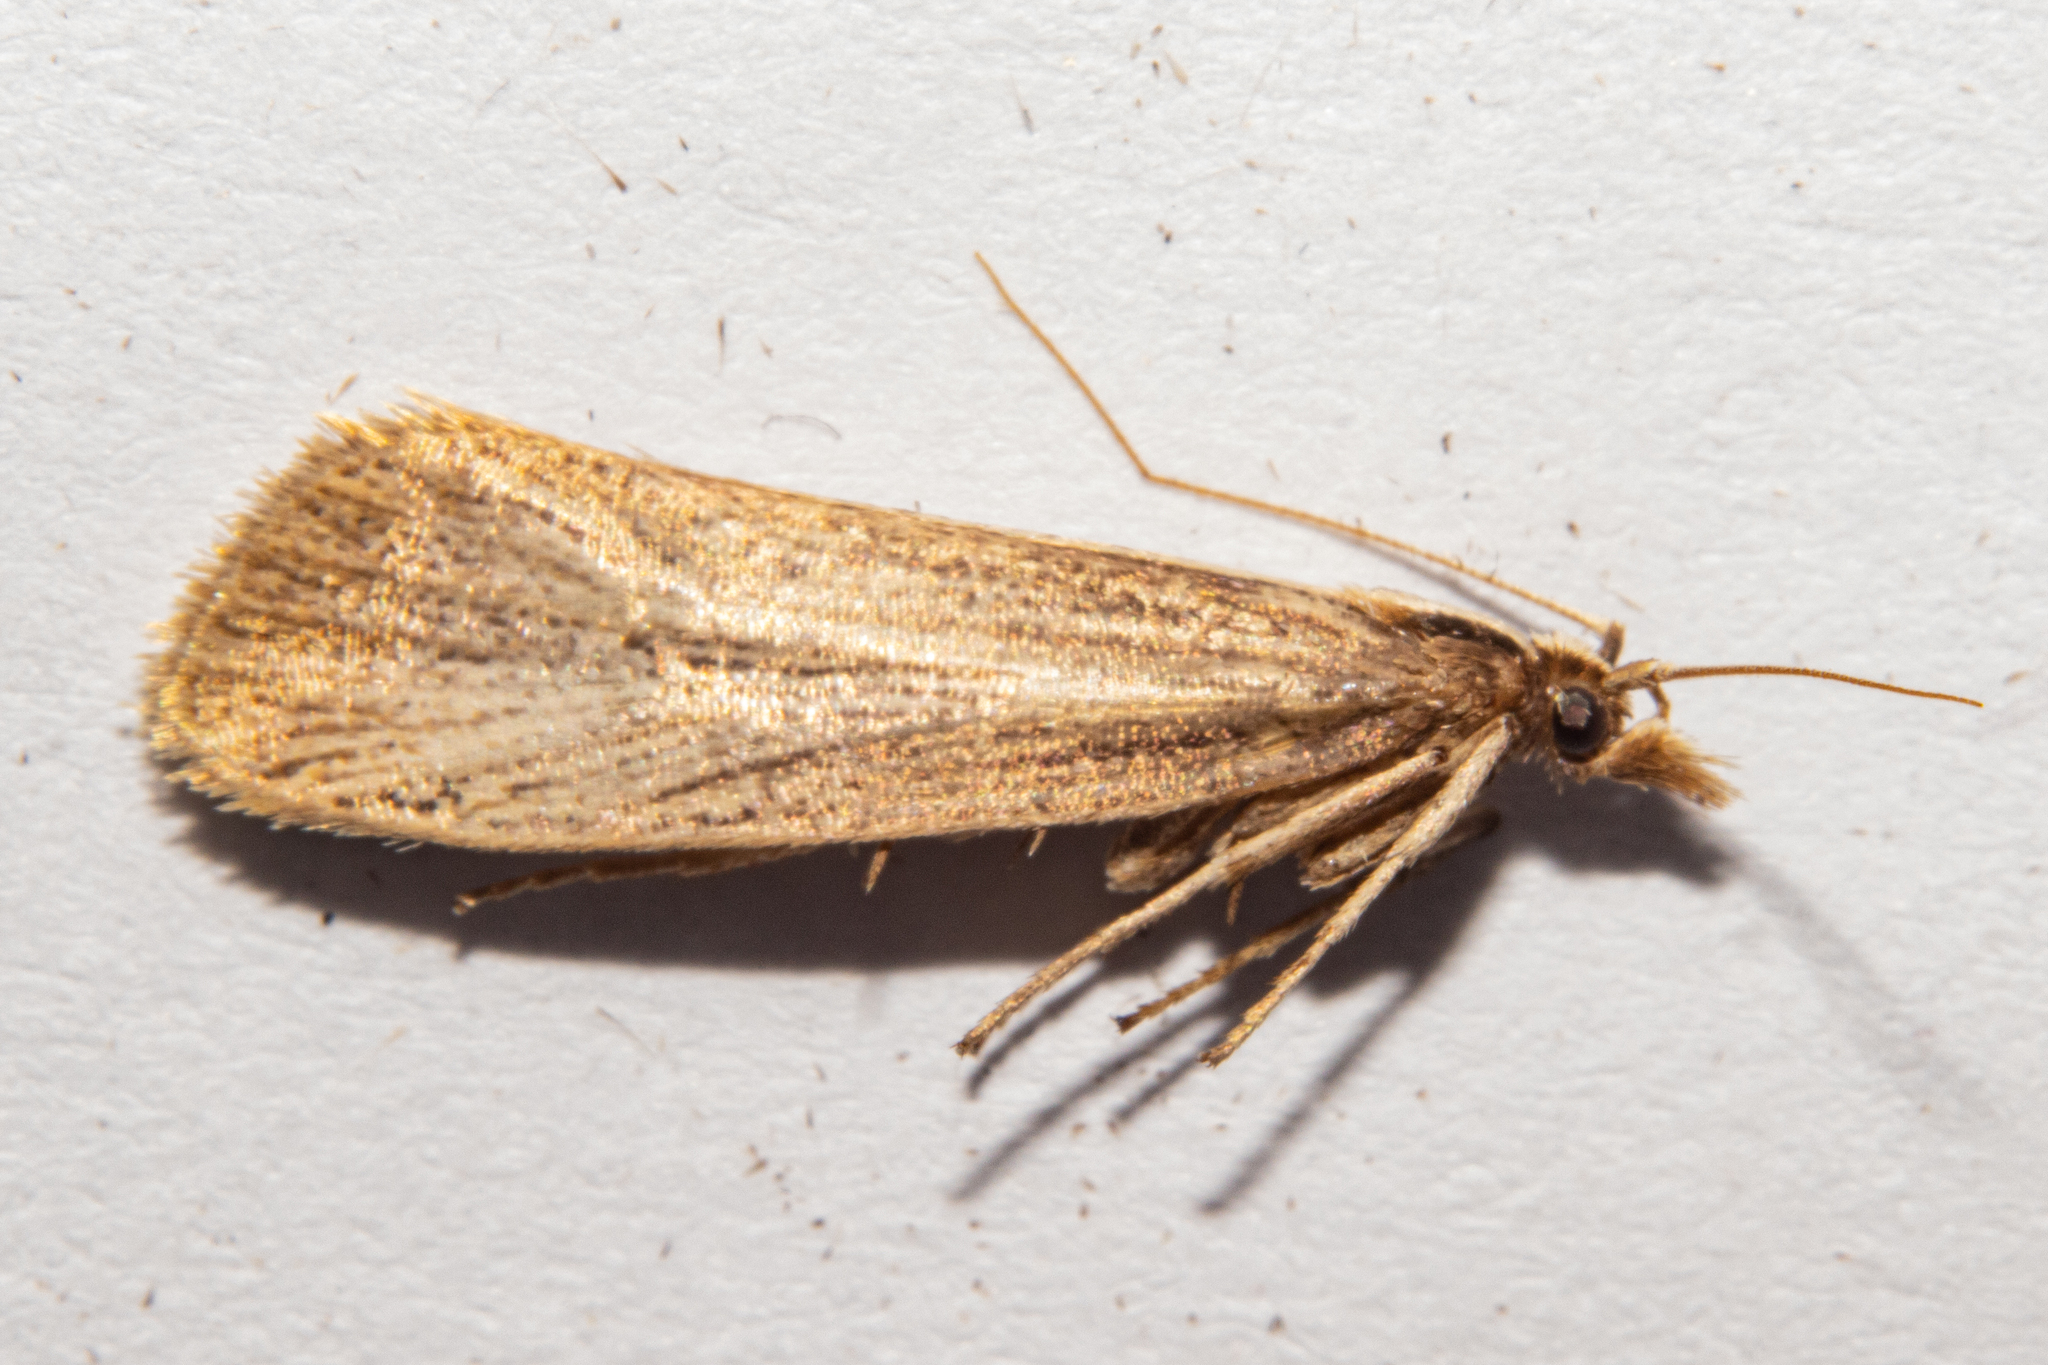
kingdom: Animalia
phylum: Arthropoda
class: Insecta
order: Lepidoptera
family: Plutellidae
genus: Proditrix
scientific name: Proditrix megalynta
